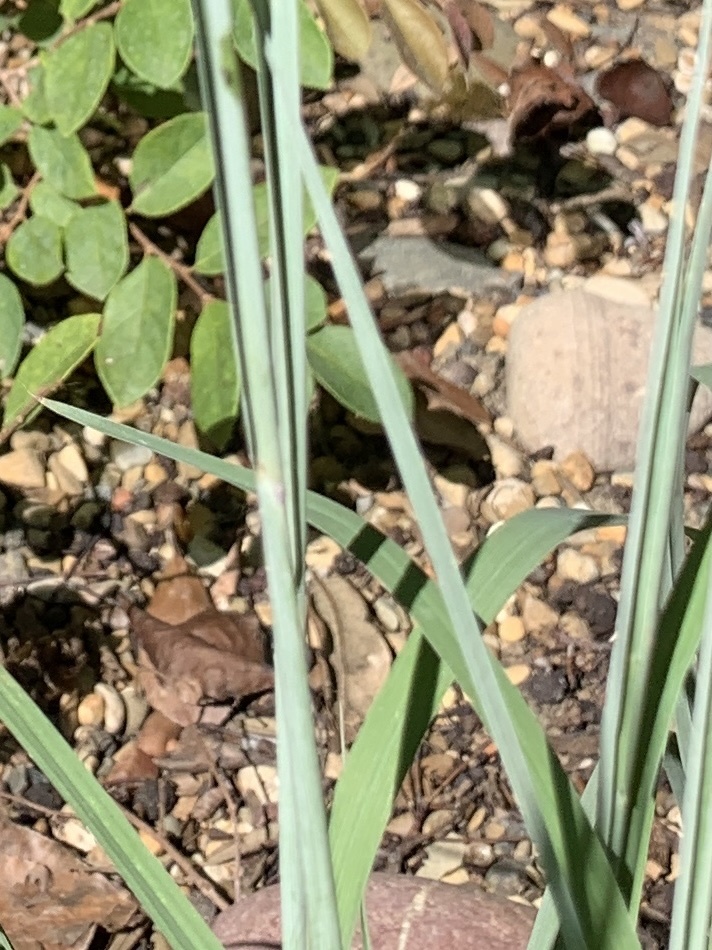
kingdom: Plantae
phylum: Tracheophyta
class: Liliopsida
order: Poales
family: Poaceae
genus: Schizachyrium
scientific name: Schizachyrium scoparium
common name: Little bluestem
